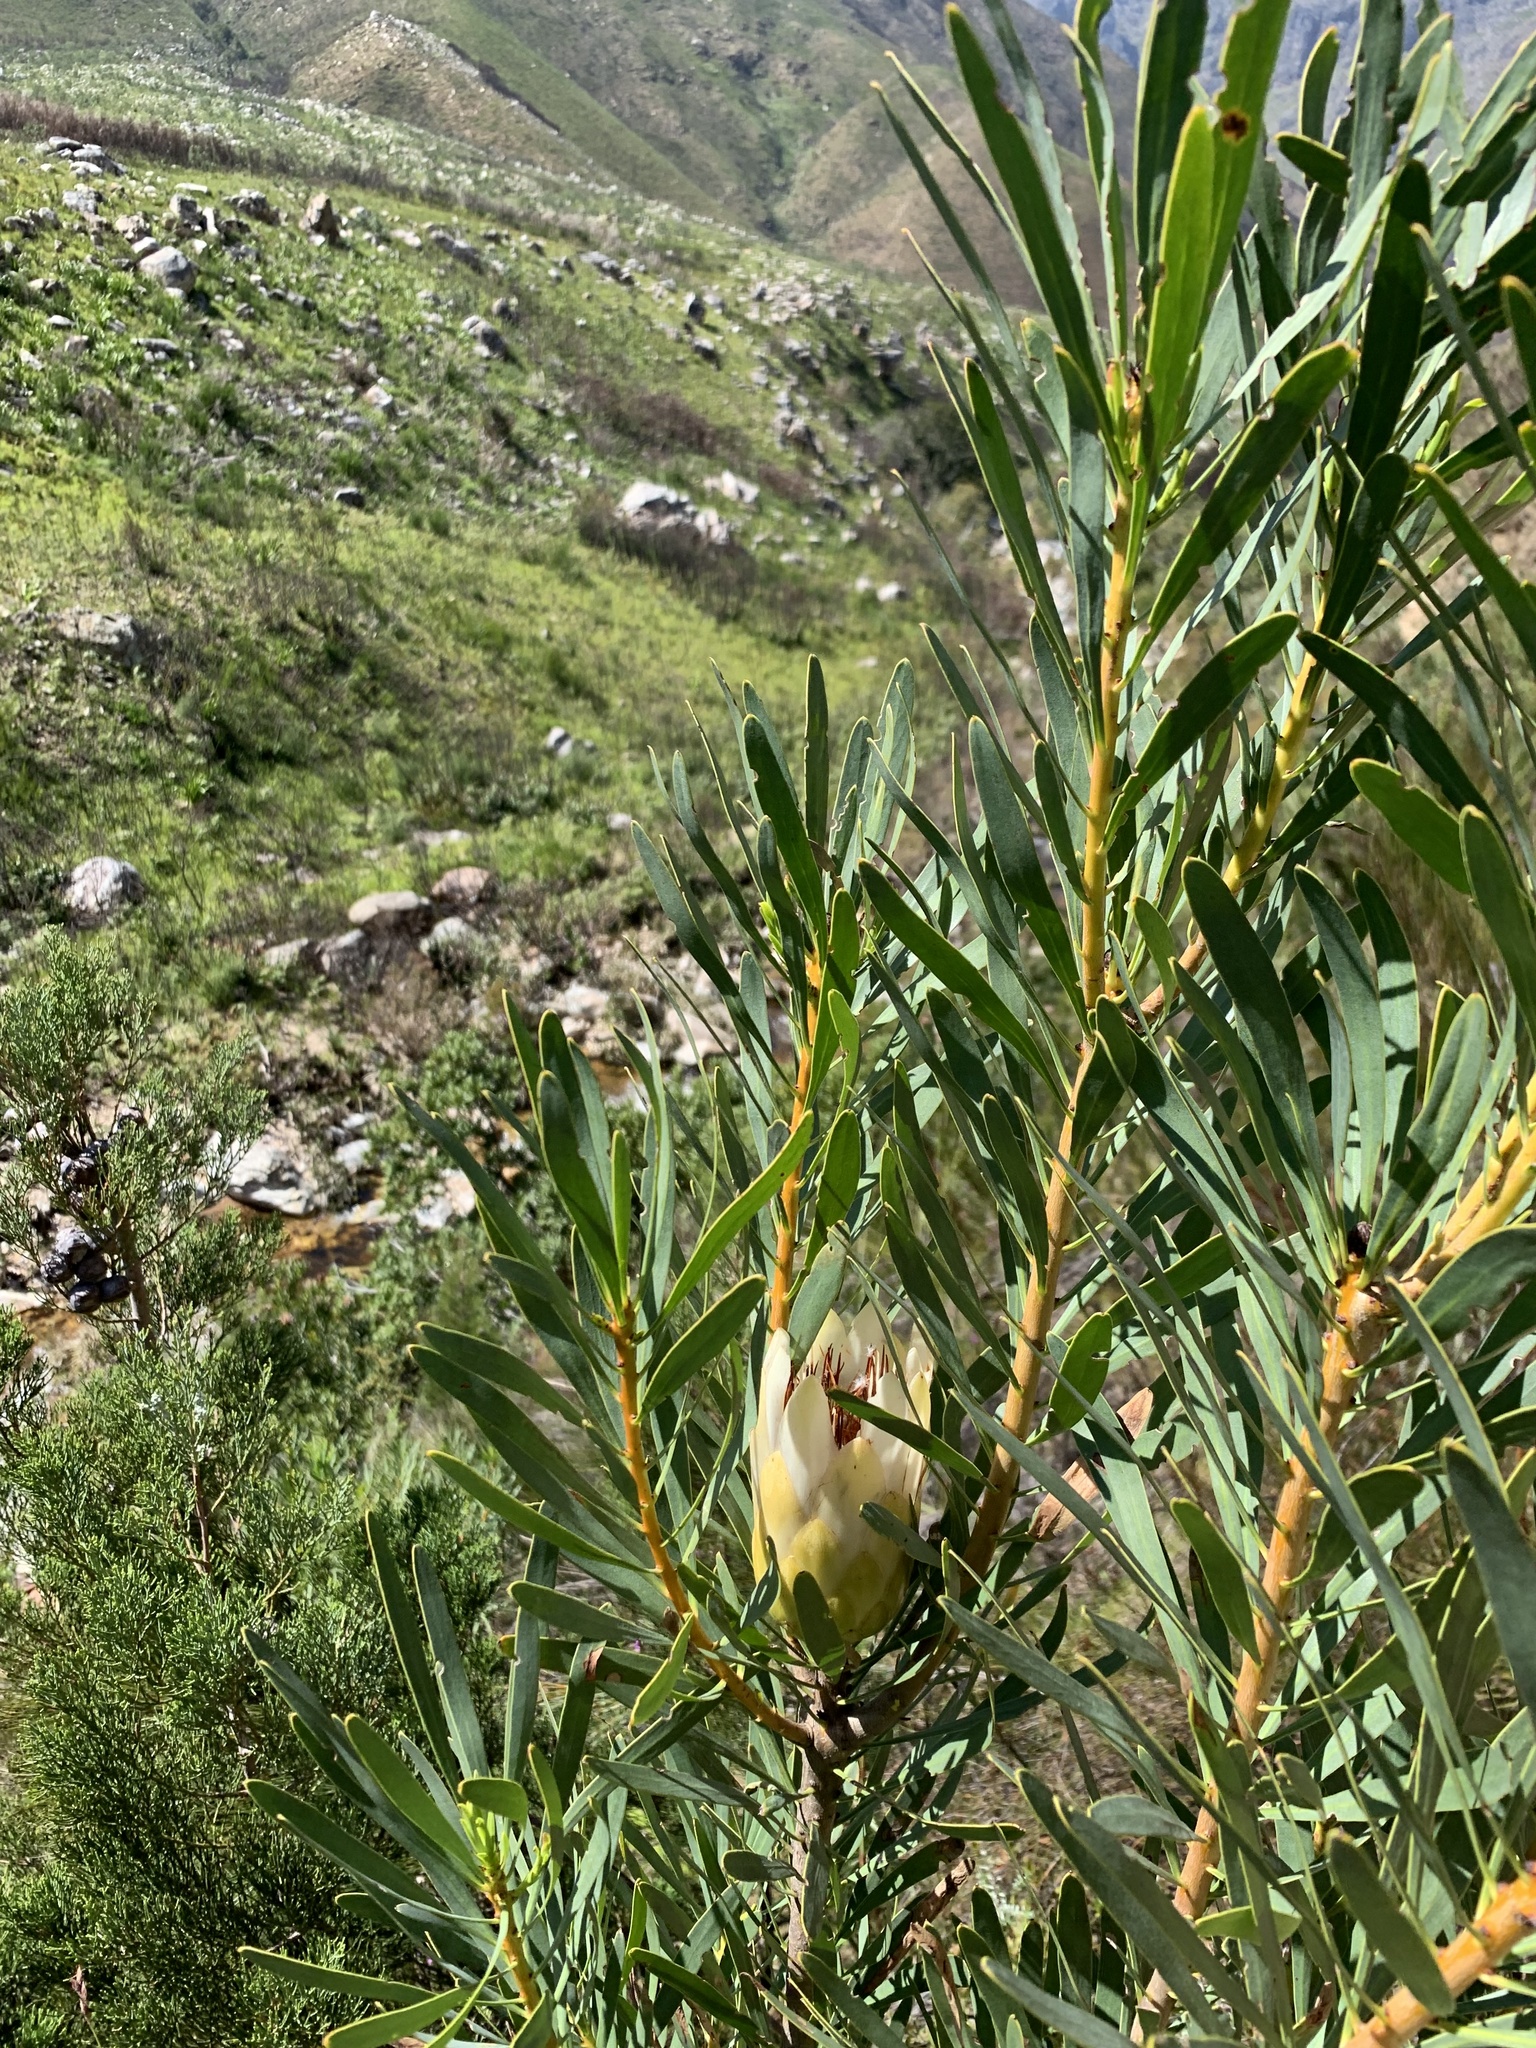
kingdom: Plantae
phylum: Tracheophyta
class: Magnoliopsida
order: Proteales
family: Proteaceae
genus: Protea
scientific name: Protea repens
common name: Sugarbush
